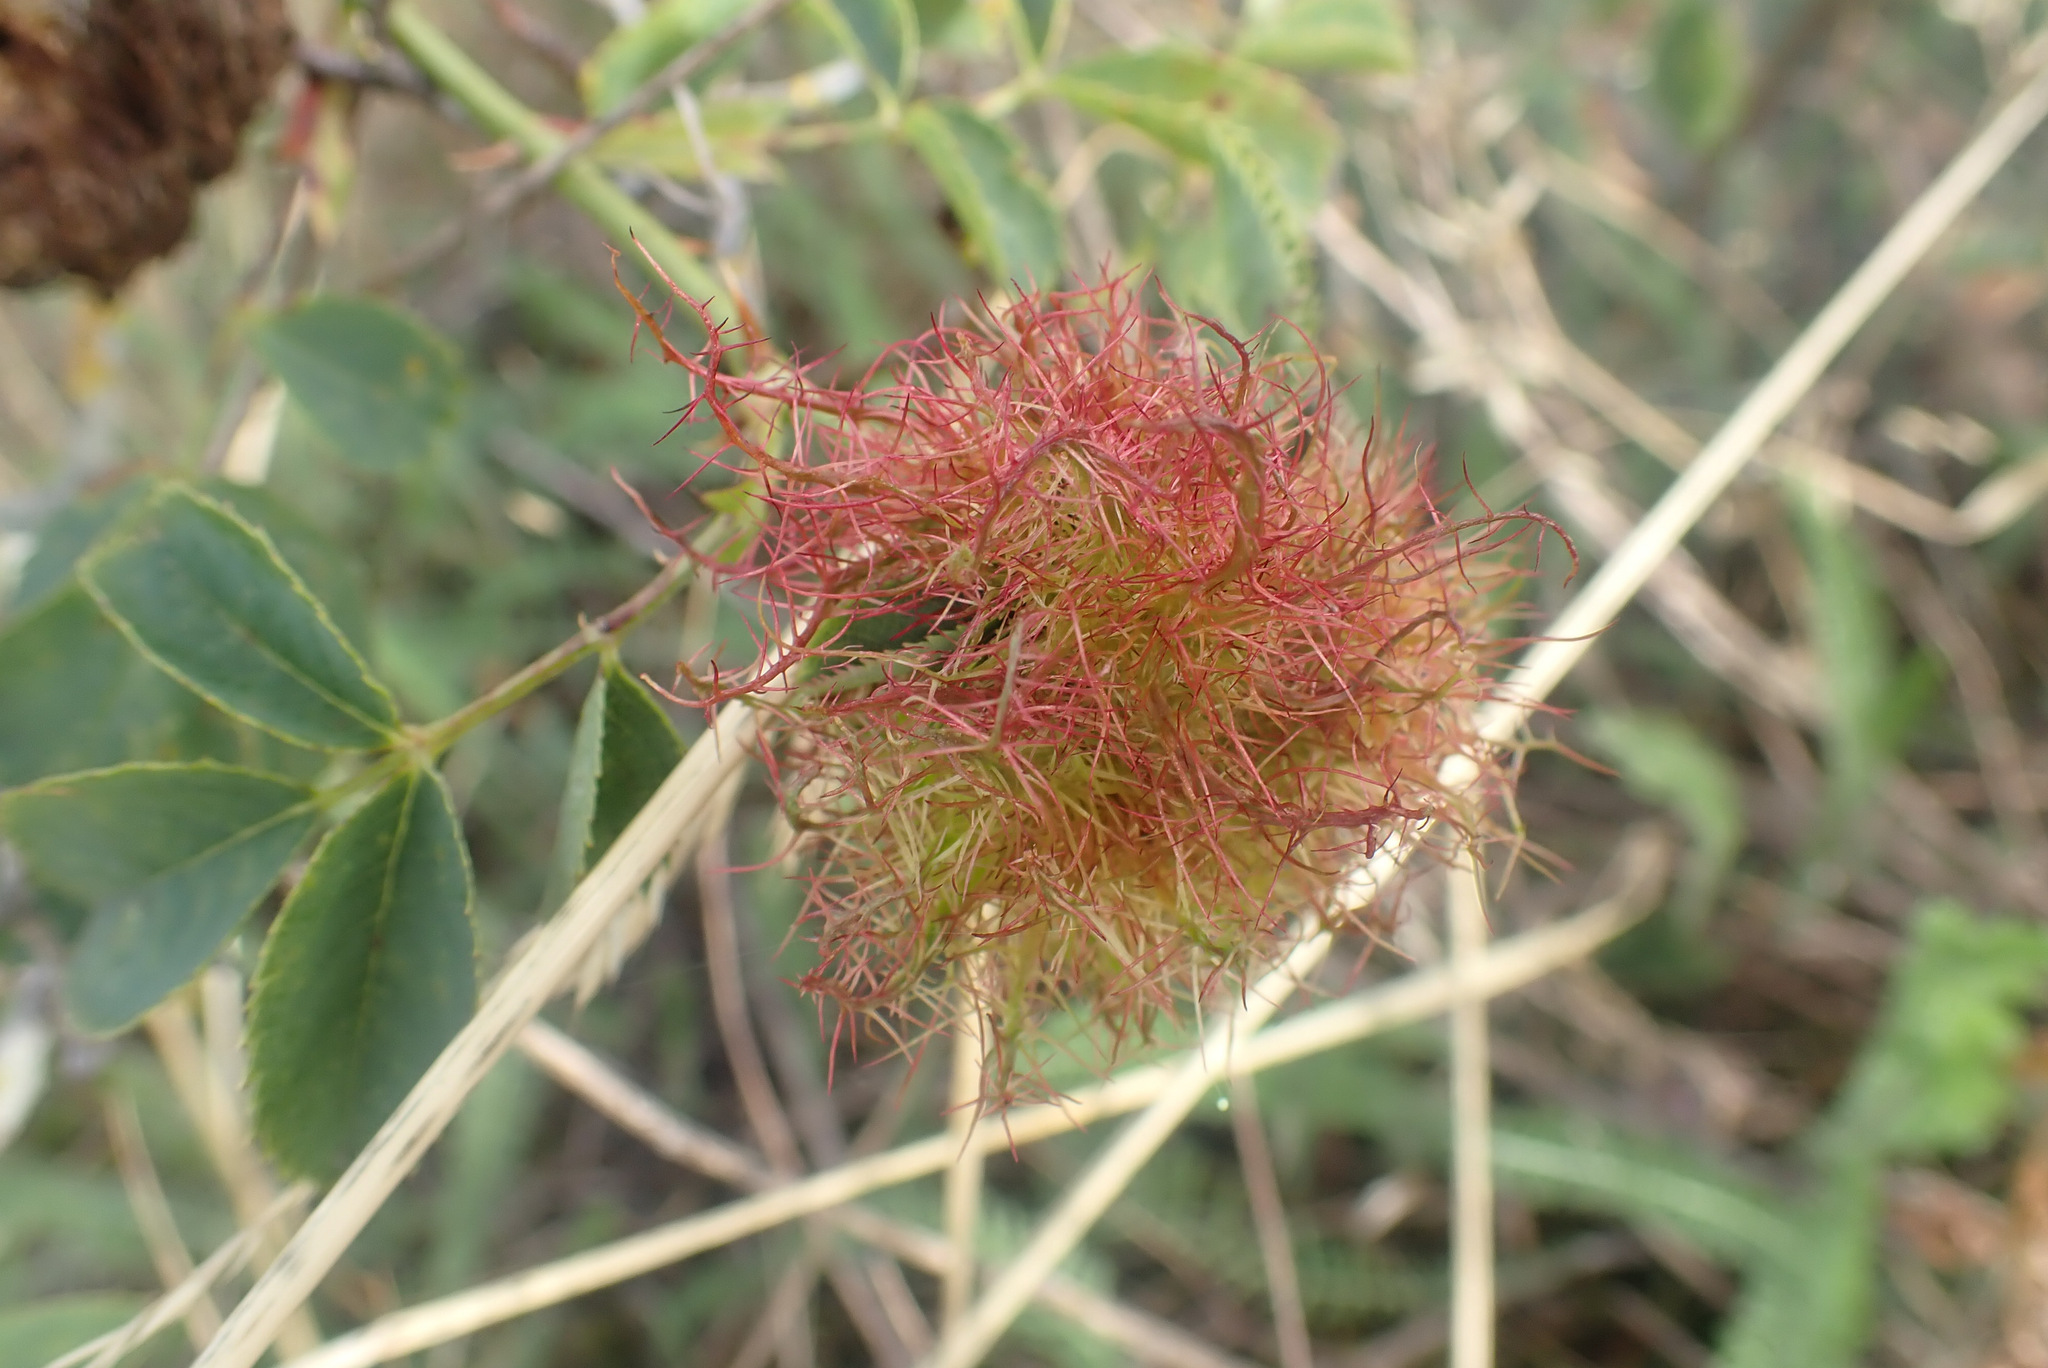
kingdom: Animalia
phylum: Arthropoda
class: Insecta
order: Hymenoptera
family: Cynipidae
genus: Diplolepis
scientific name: Diplolepis rosae
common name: Bedeguar gall
